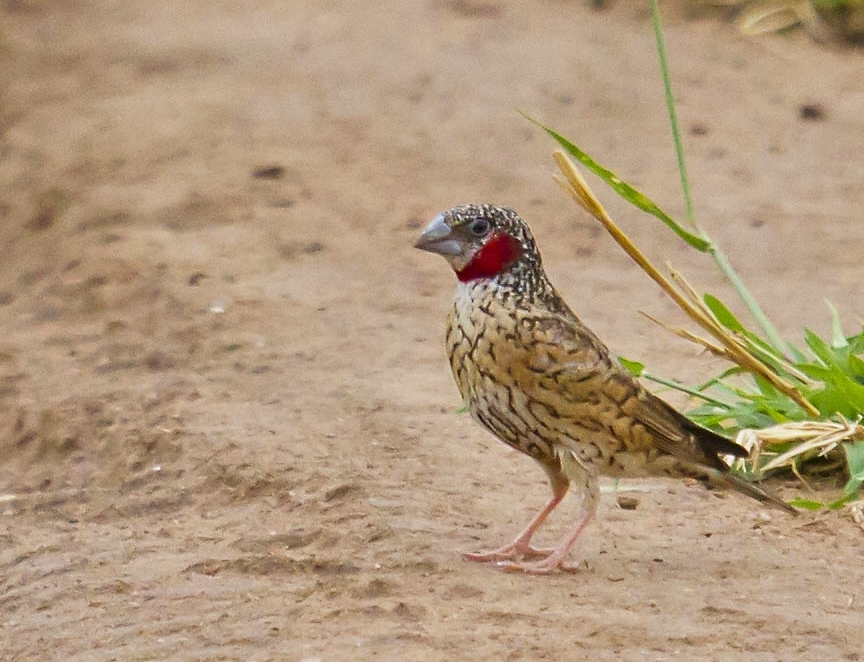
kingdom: Animalia
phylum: Chordata
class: Aves
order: Passeriformes
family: Estrildidae
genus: Amadina
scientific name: Amadina fasciata
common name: Cut-throat finch
